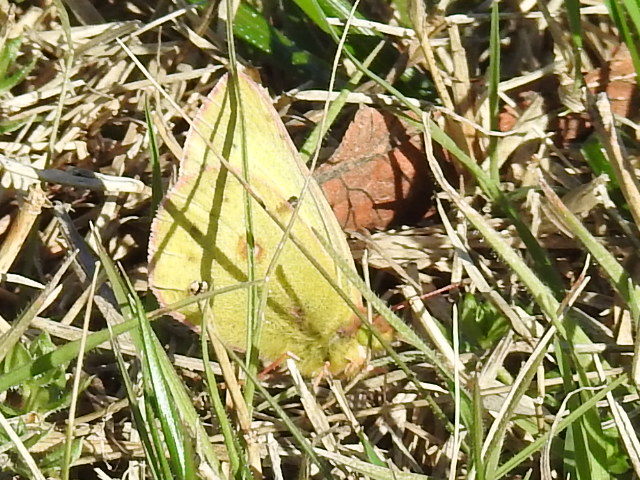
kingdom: Animalia
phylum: Arthropoda
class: Insecta
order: Lepidoptera
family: Pieridae
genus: Colias
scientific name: Colias eurytheme
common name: Alfalfa butterfly
